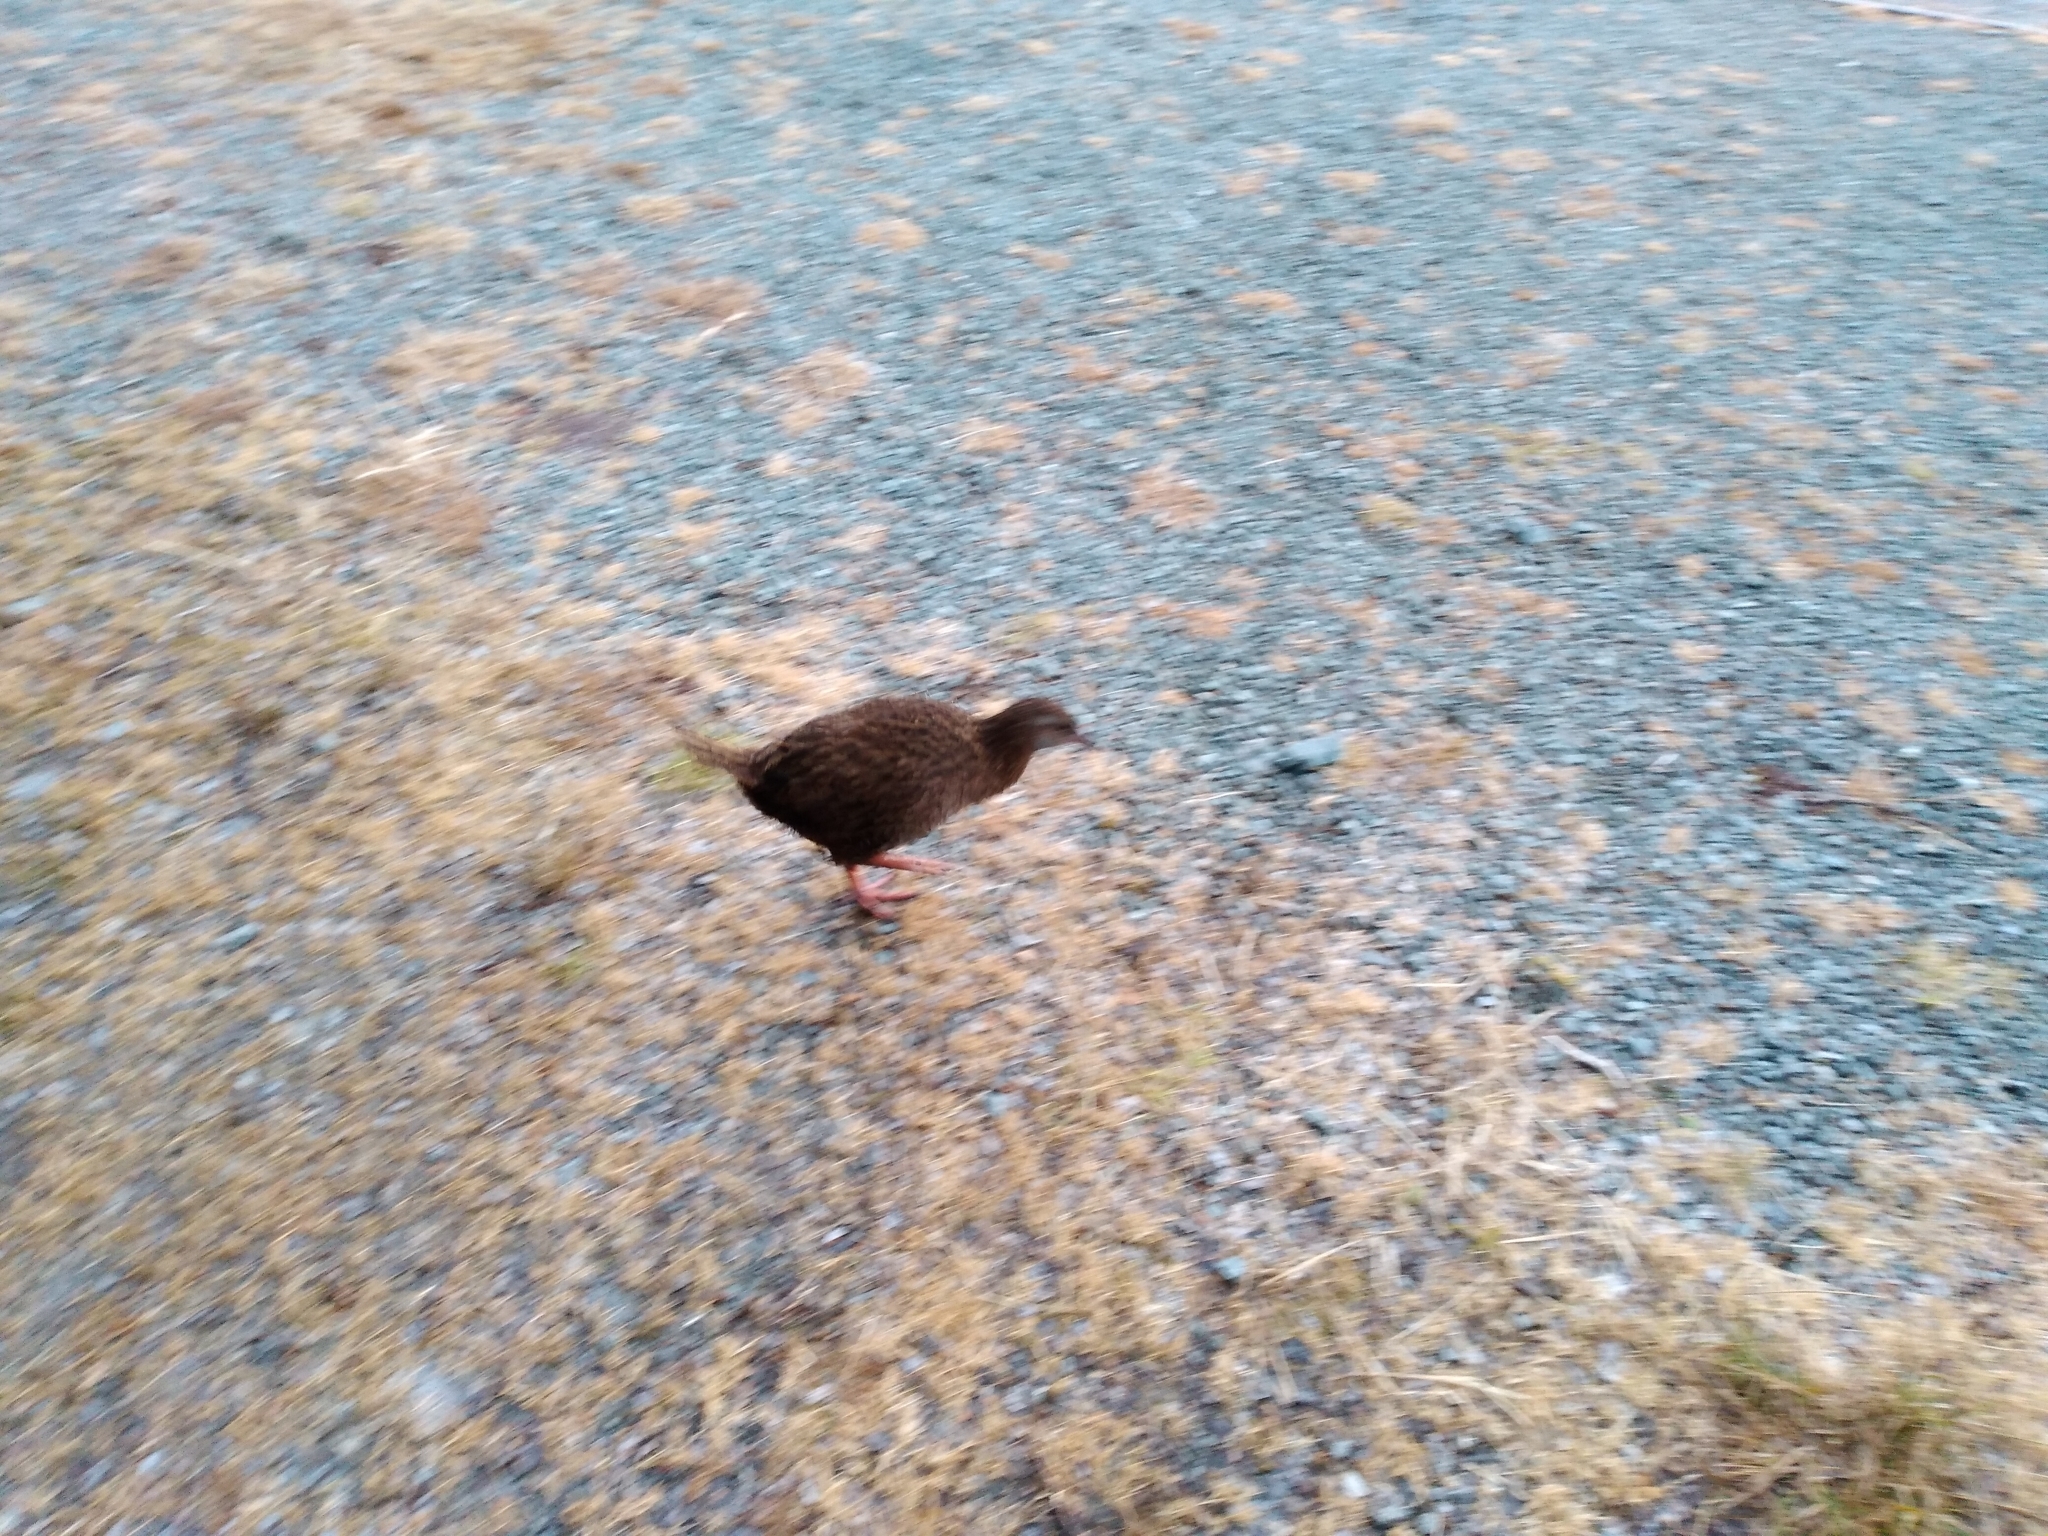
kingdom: Animalia
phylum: Chordata
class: Aves
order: Gruiformes
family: Rallidae
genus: Gallirallus
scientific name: Gallirallus australis
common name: Weka
